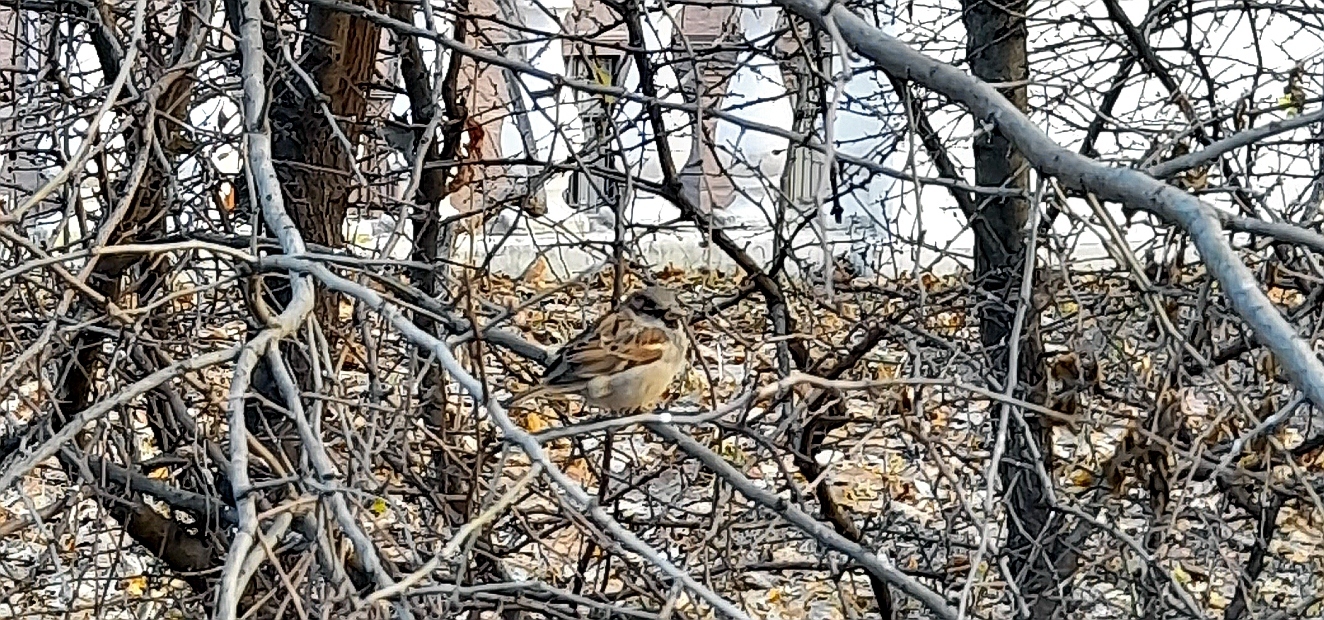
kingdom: Animalia
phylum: Chordata
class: Aves
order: Passeriformes
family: Passeridae
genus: Passer
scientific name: Passer domesticus
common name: House sparrow
